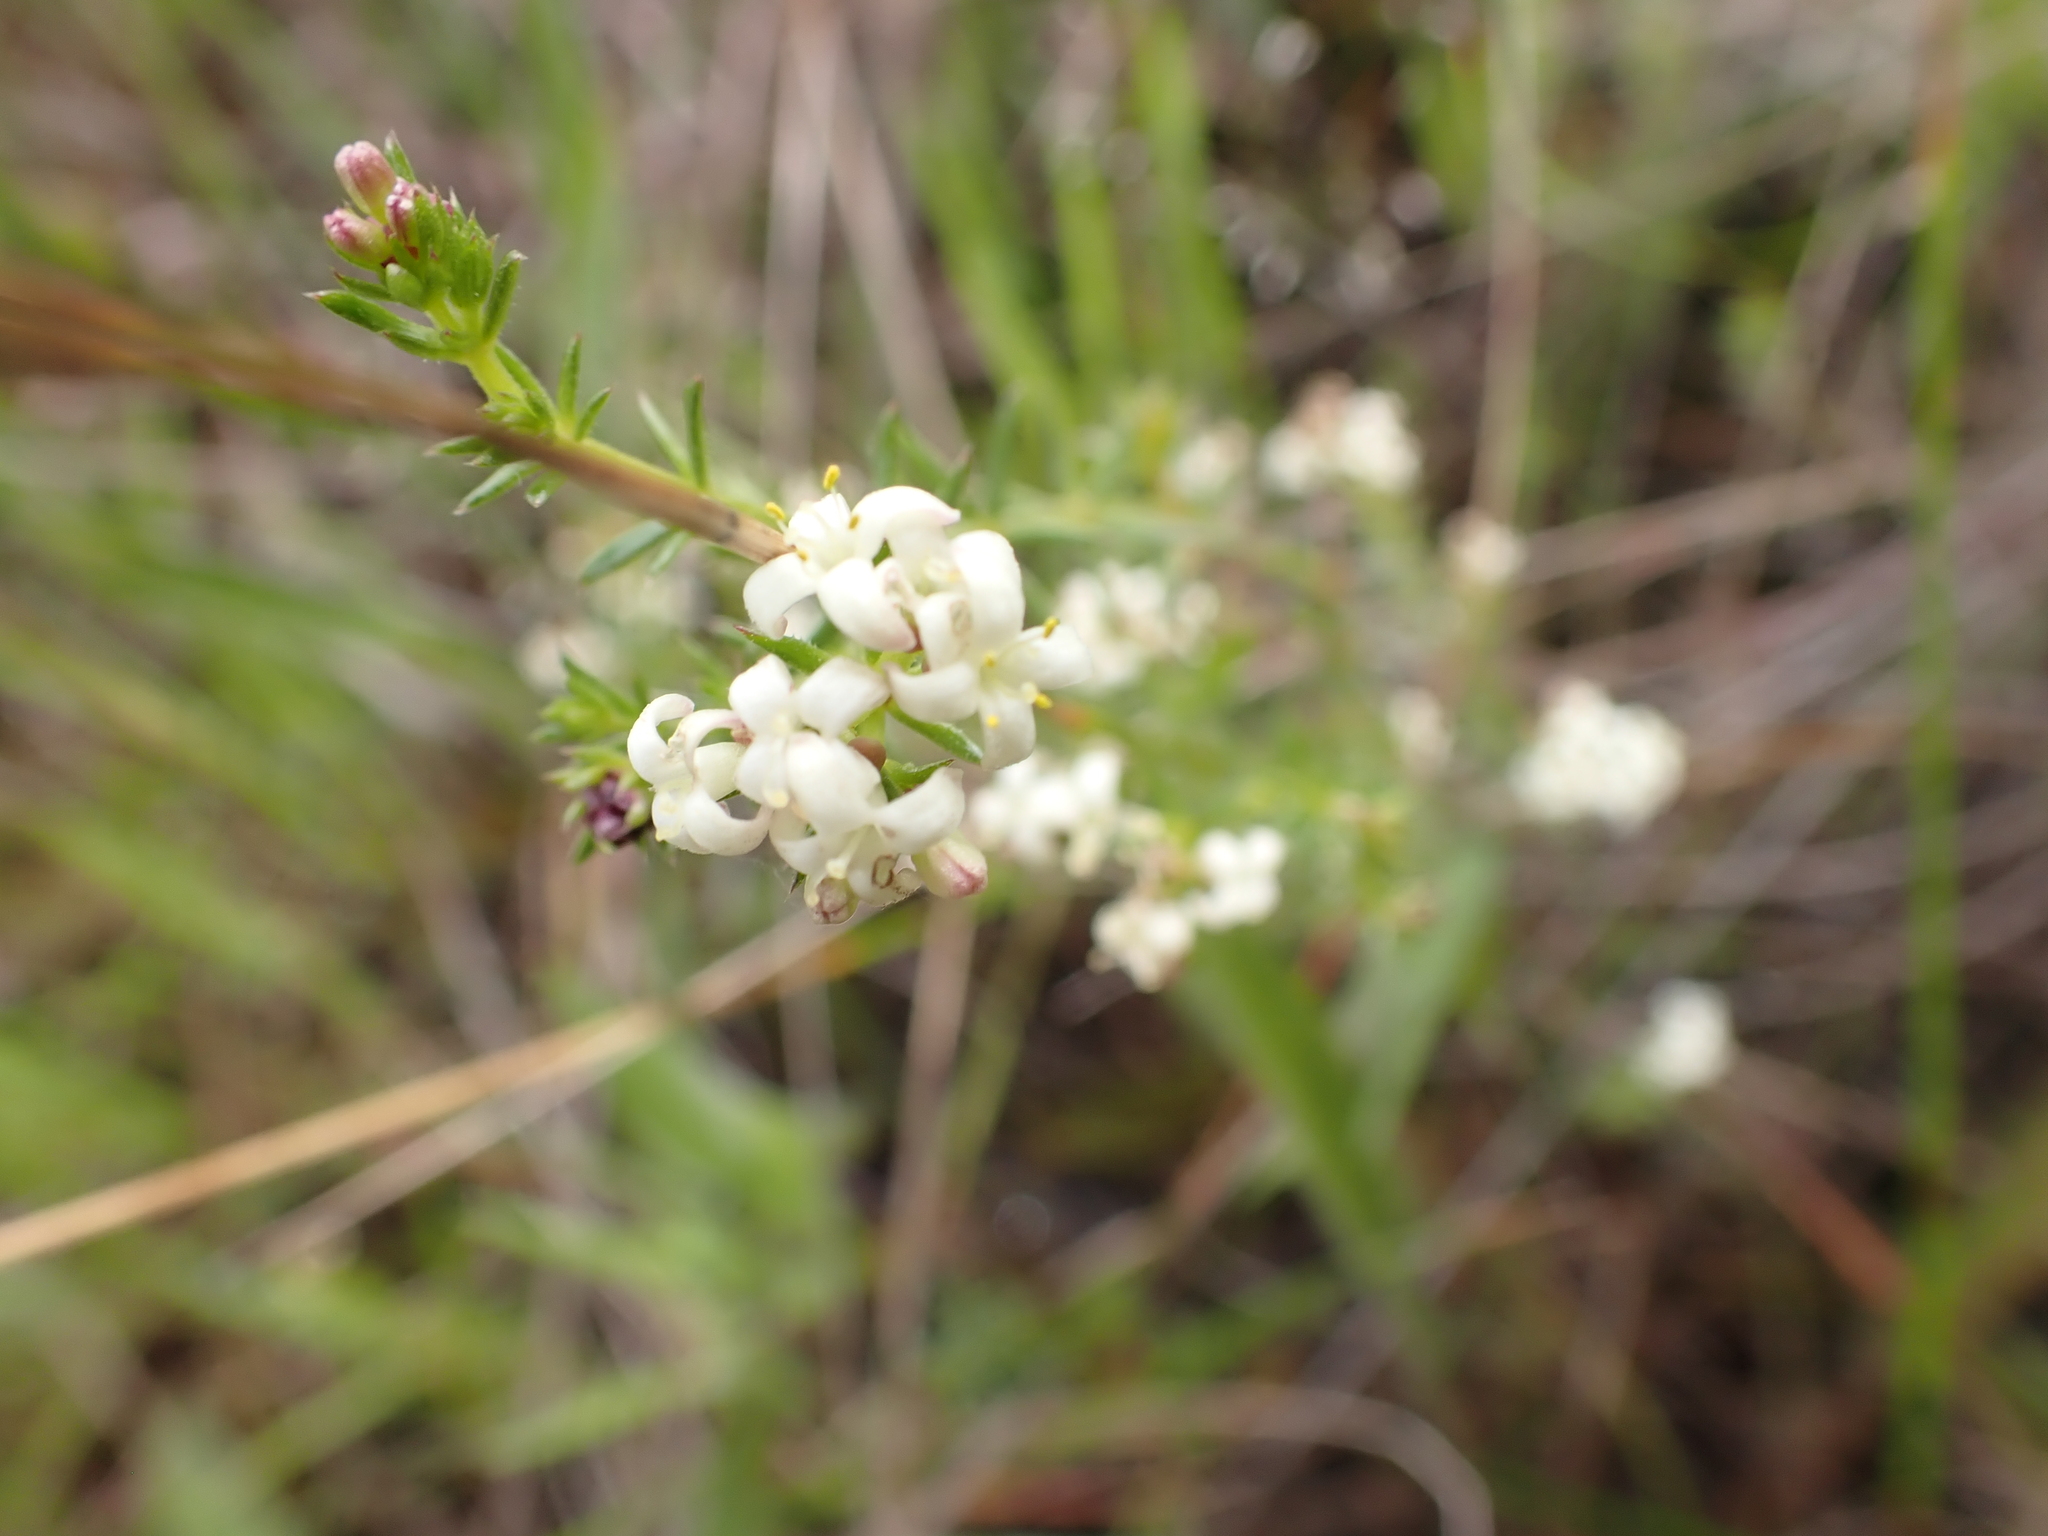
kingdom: Plantae
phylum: Tracheophyta
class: Magnoliopsida
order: Gentianales
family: Rubiaceae
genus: Asperula
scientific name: Asperula conferta
